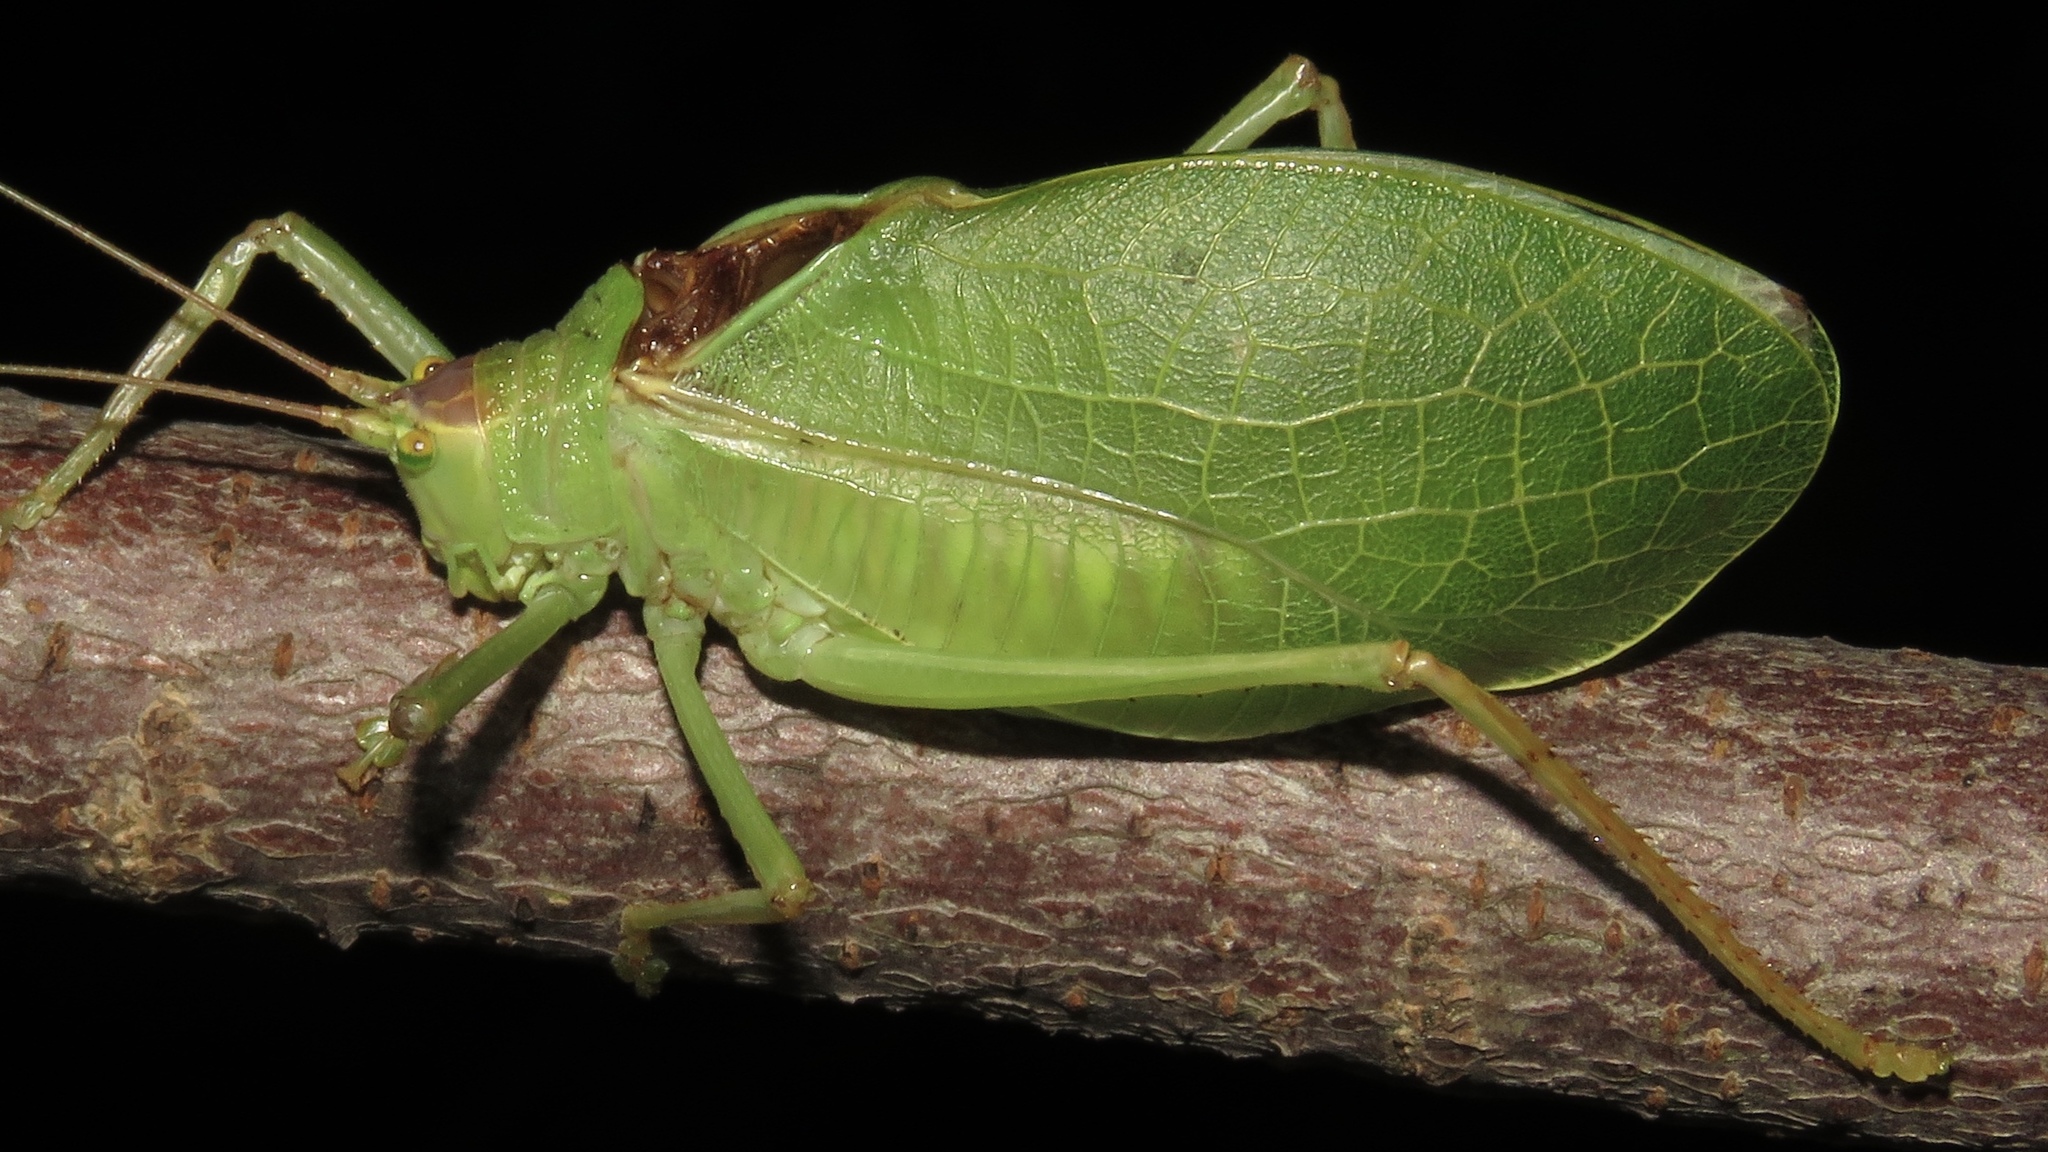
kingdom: Animalia
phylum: Arthropoda
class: Insecta
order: Orthoptera
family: Tettigoniidae
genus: Pterophylla
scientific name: Pterophylla camellifolia
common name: Common true katydid
